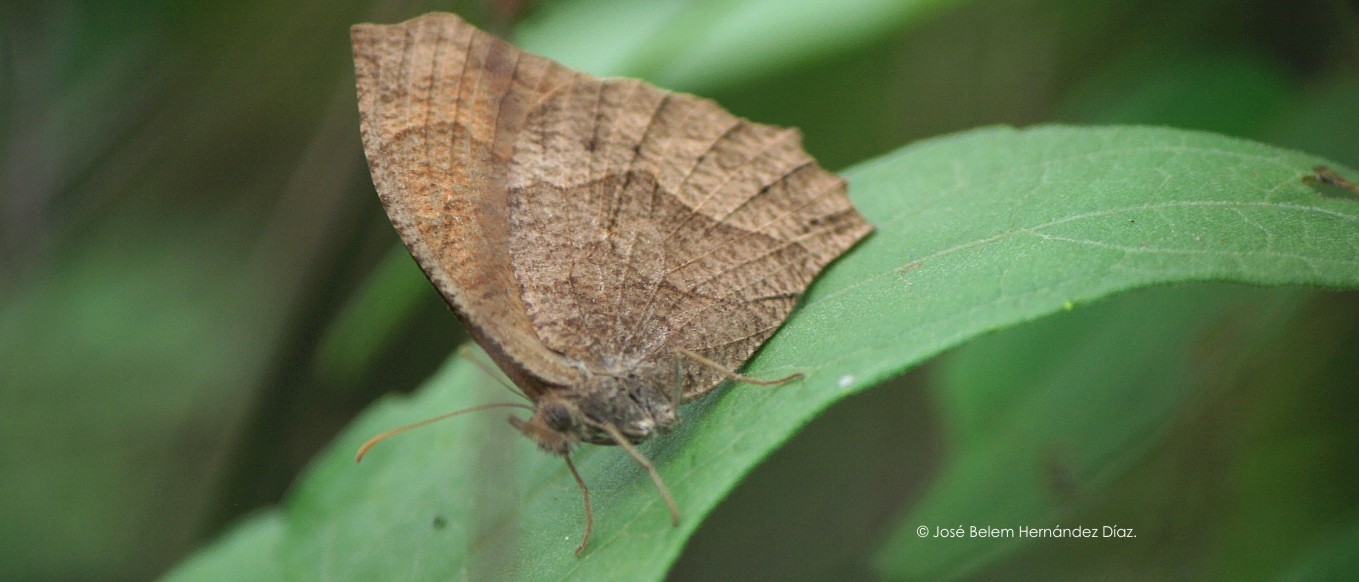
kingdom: Animalia
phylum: Arthropoda
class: Insecta
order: Lepidoptera
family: Nymphalidae
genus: Pindis
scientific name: Pindis squamistriga
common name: Variable satyr
